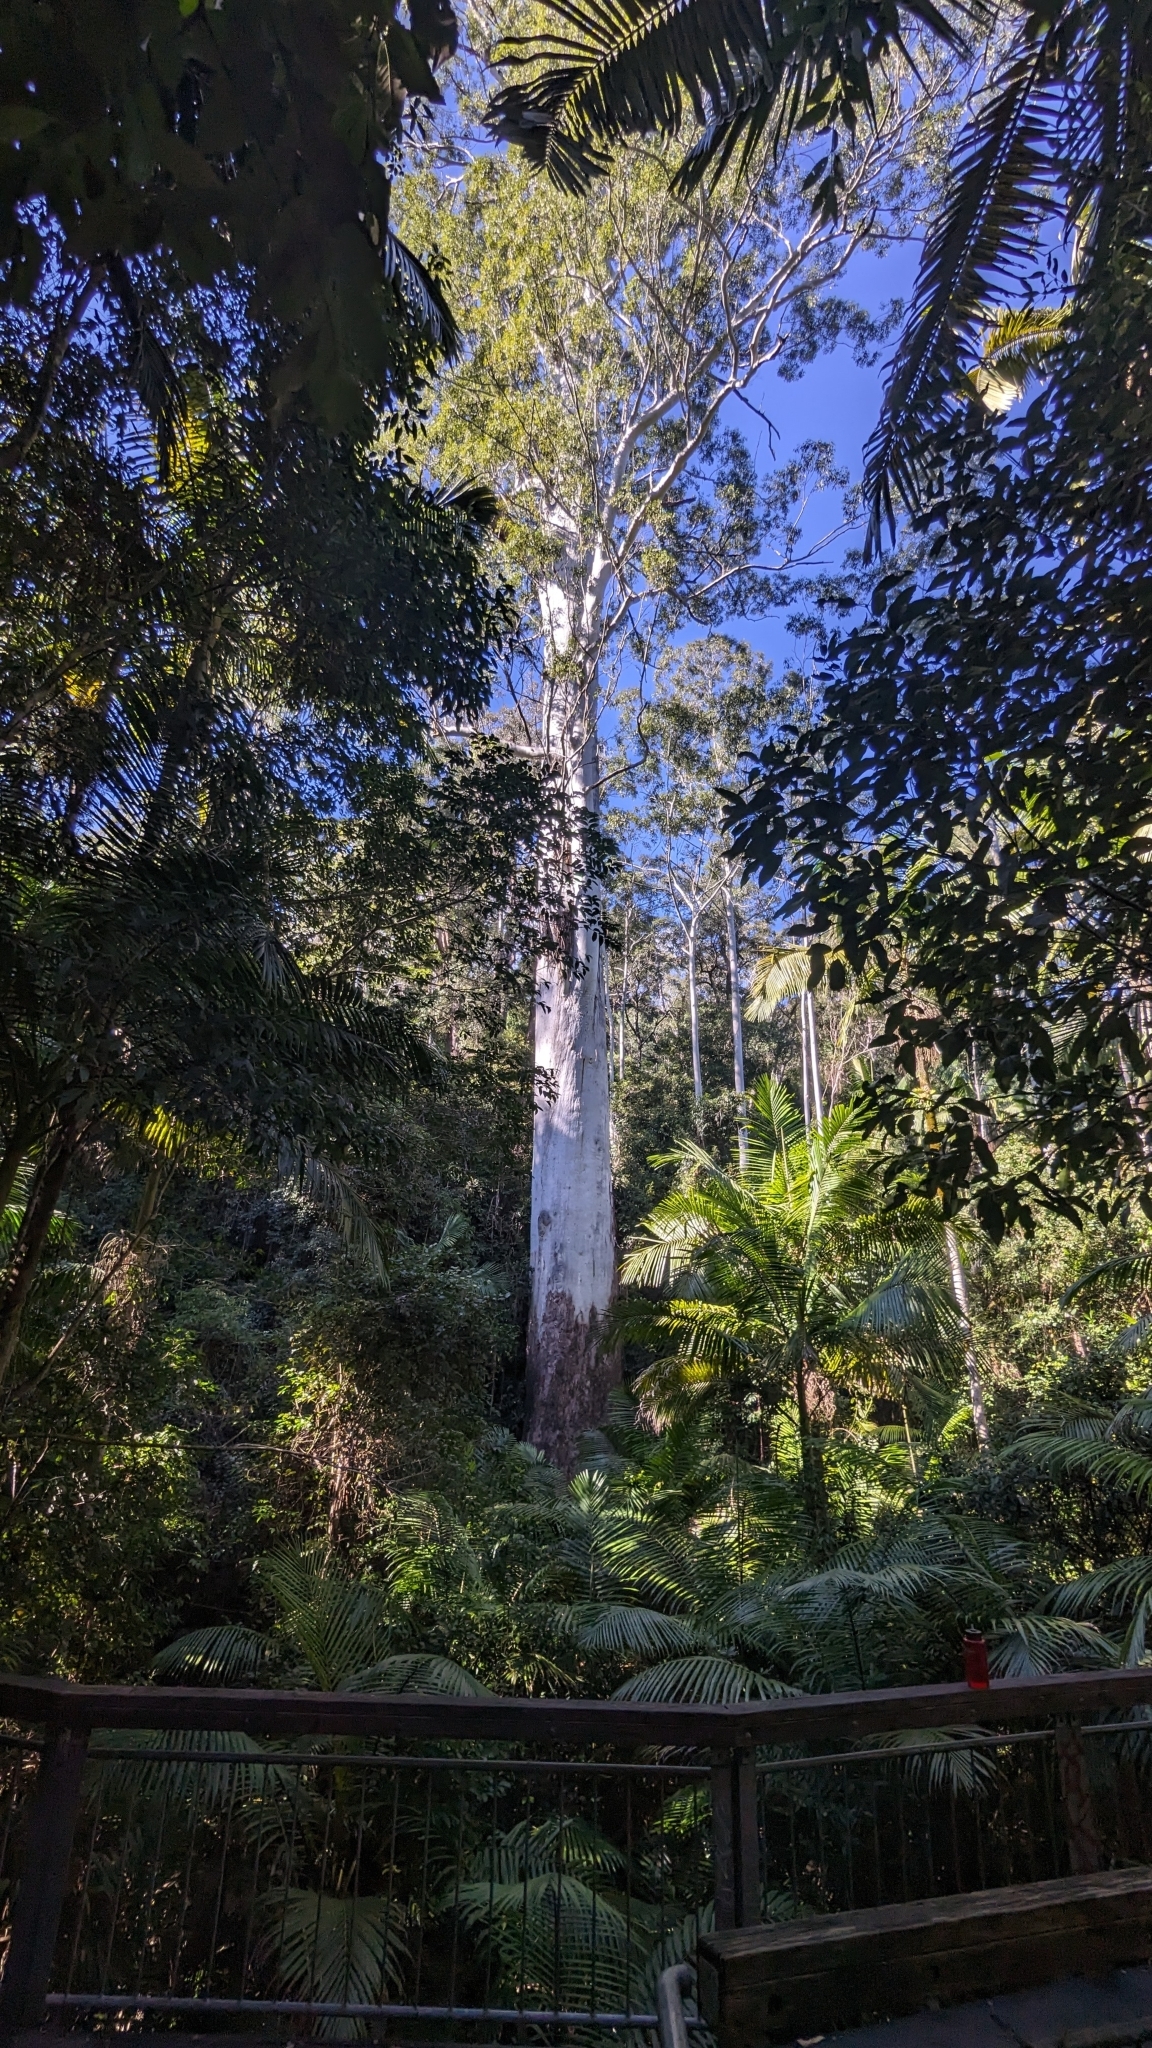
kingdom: Plantae
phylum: Tracheophyta
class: Magnoliopsida
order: Myrtales
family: Myrtaceae
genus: Eucalyptus
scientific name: Eucalyptus grandis
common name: Grand eucalyptus
